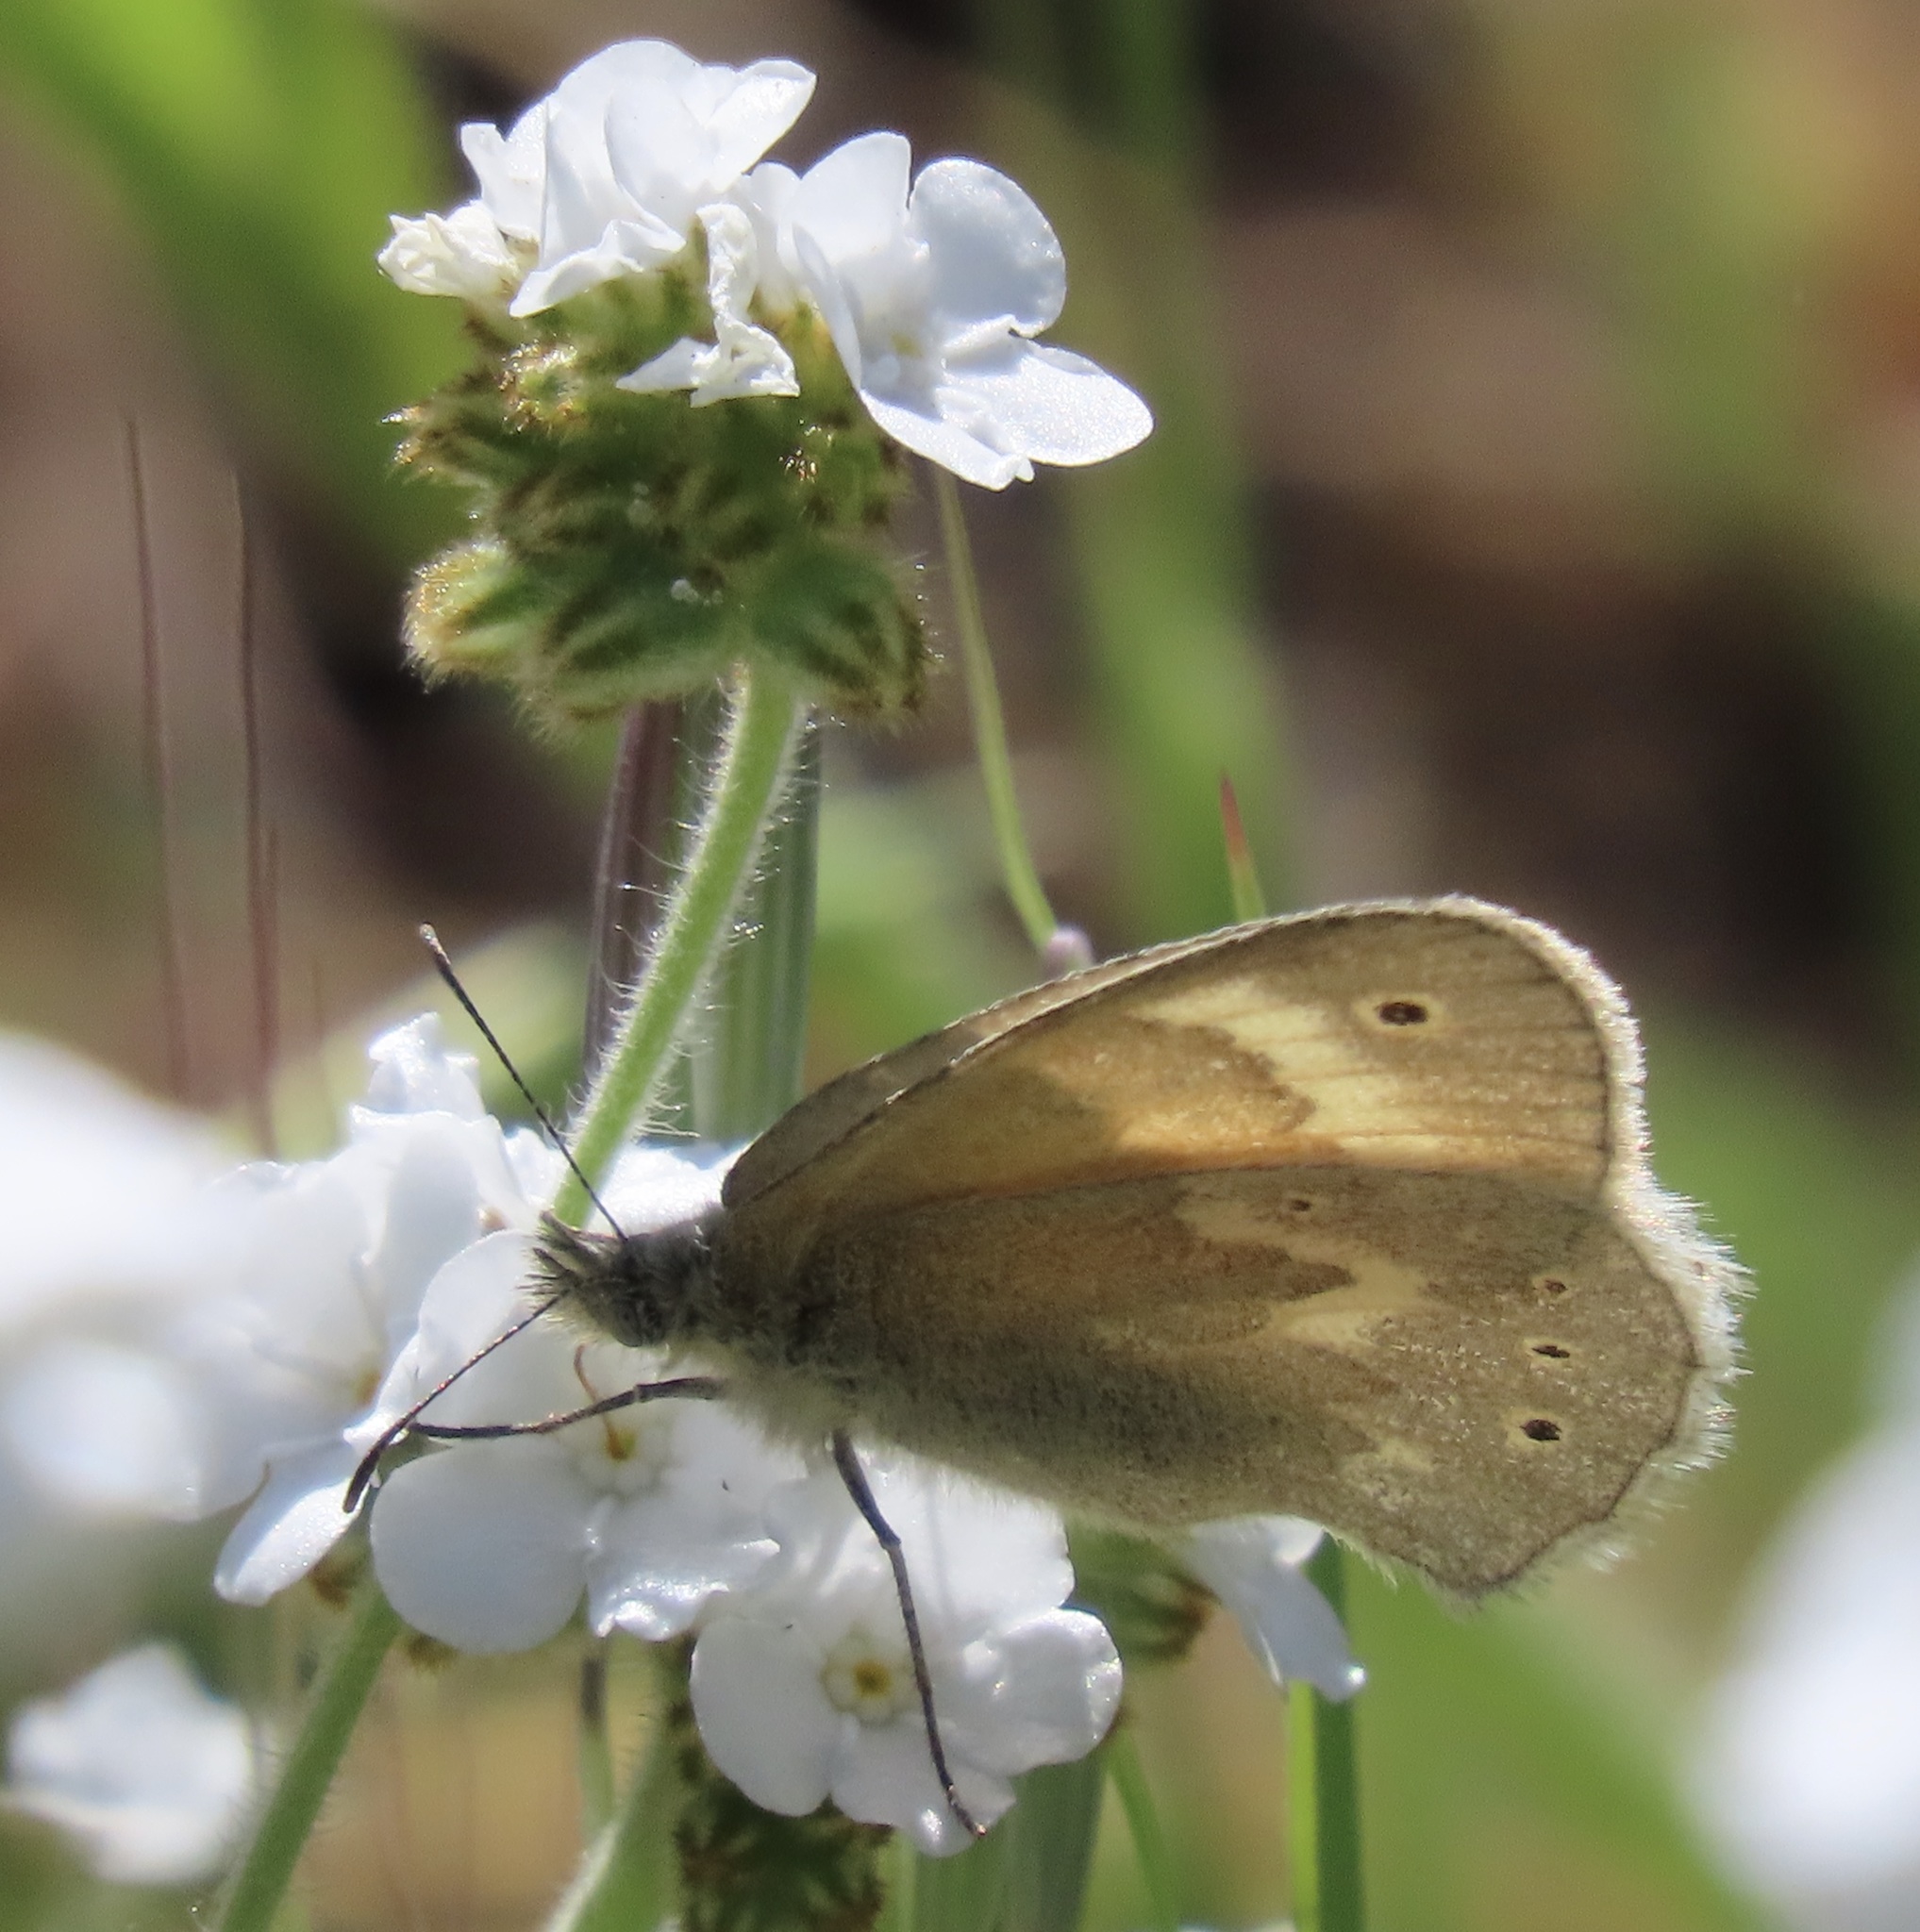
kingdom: Animalia
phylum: Arthropoda
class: Insecta
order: Lepidoptera
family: Nymphalidae
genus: Coenonympha
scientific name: Coenonympha california
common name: Common ringlet
